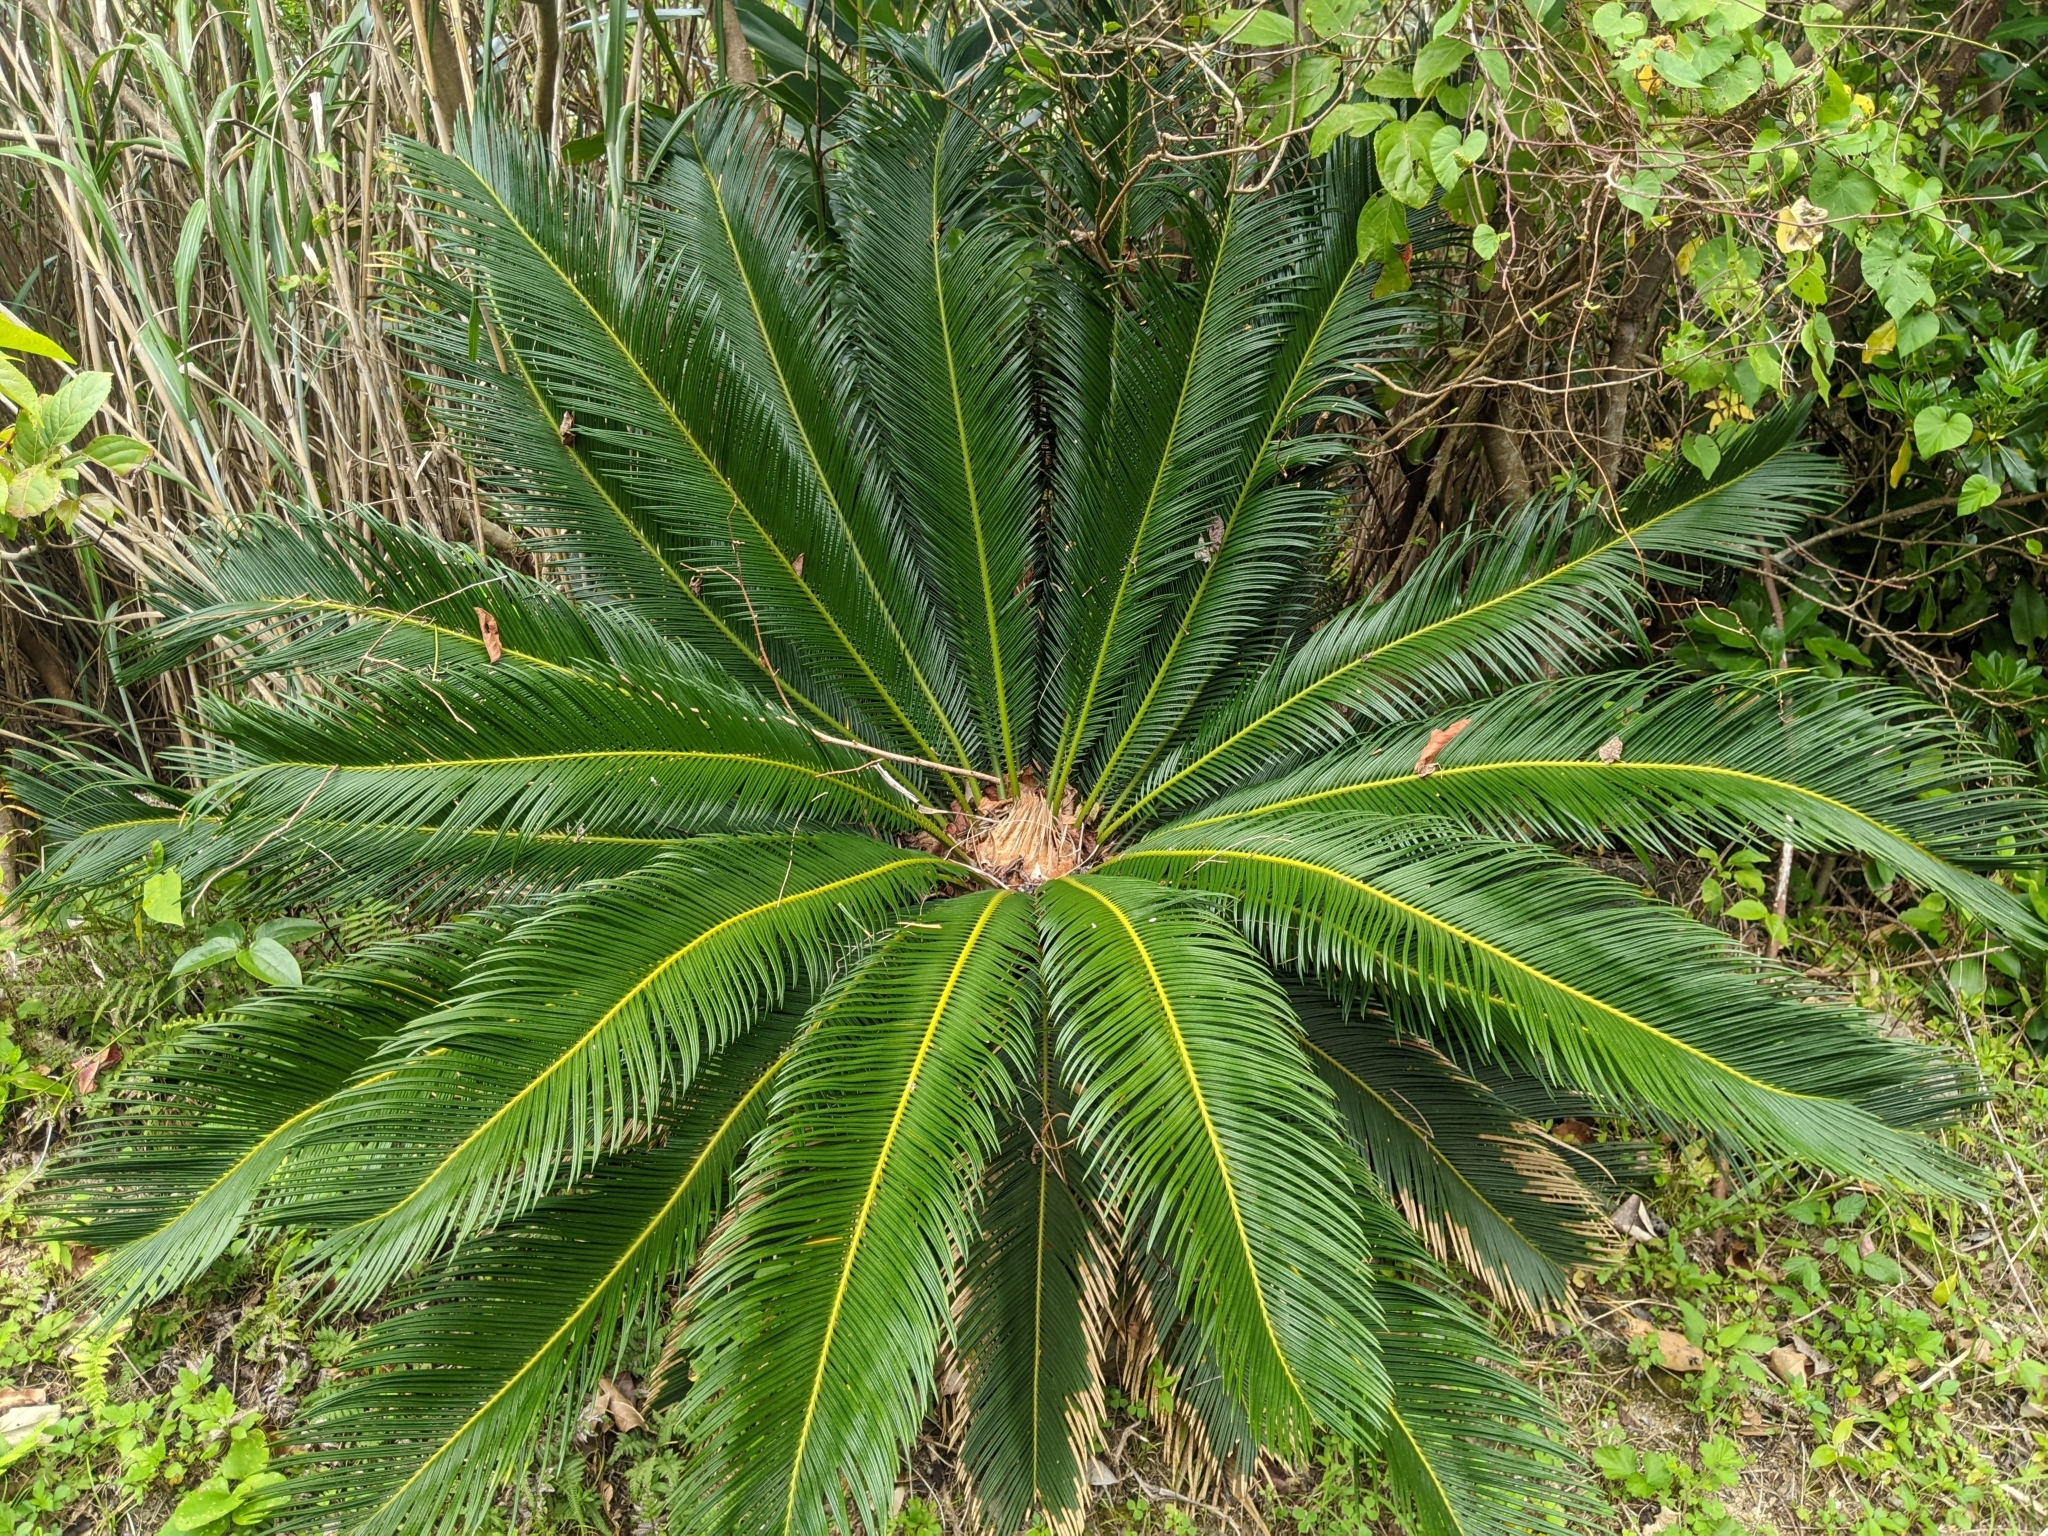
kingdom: Plantae
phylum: Tracheophyta
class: Cycadopsida
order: Cycadales
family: Cycadaceae
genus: Cycas
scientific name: Cycas revoluta
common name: Sago palm
